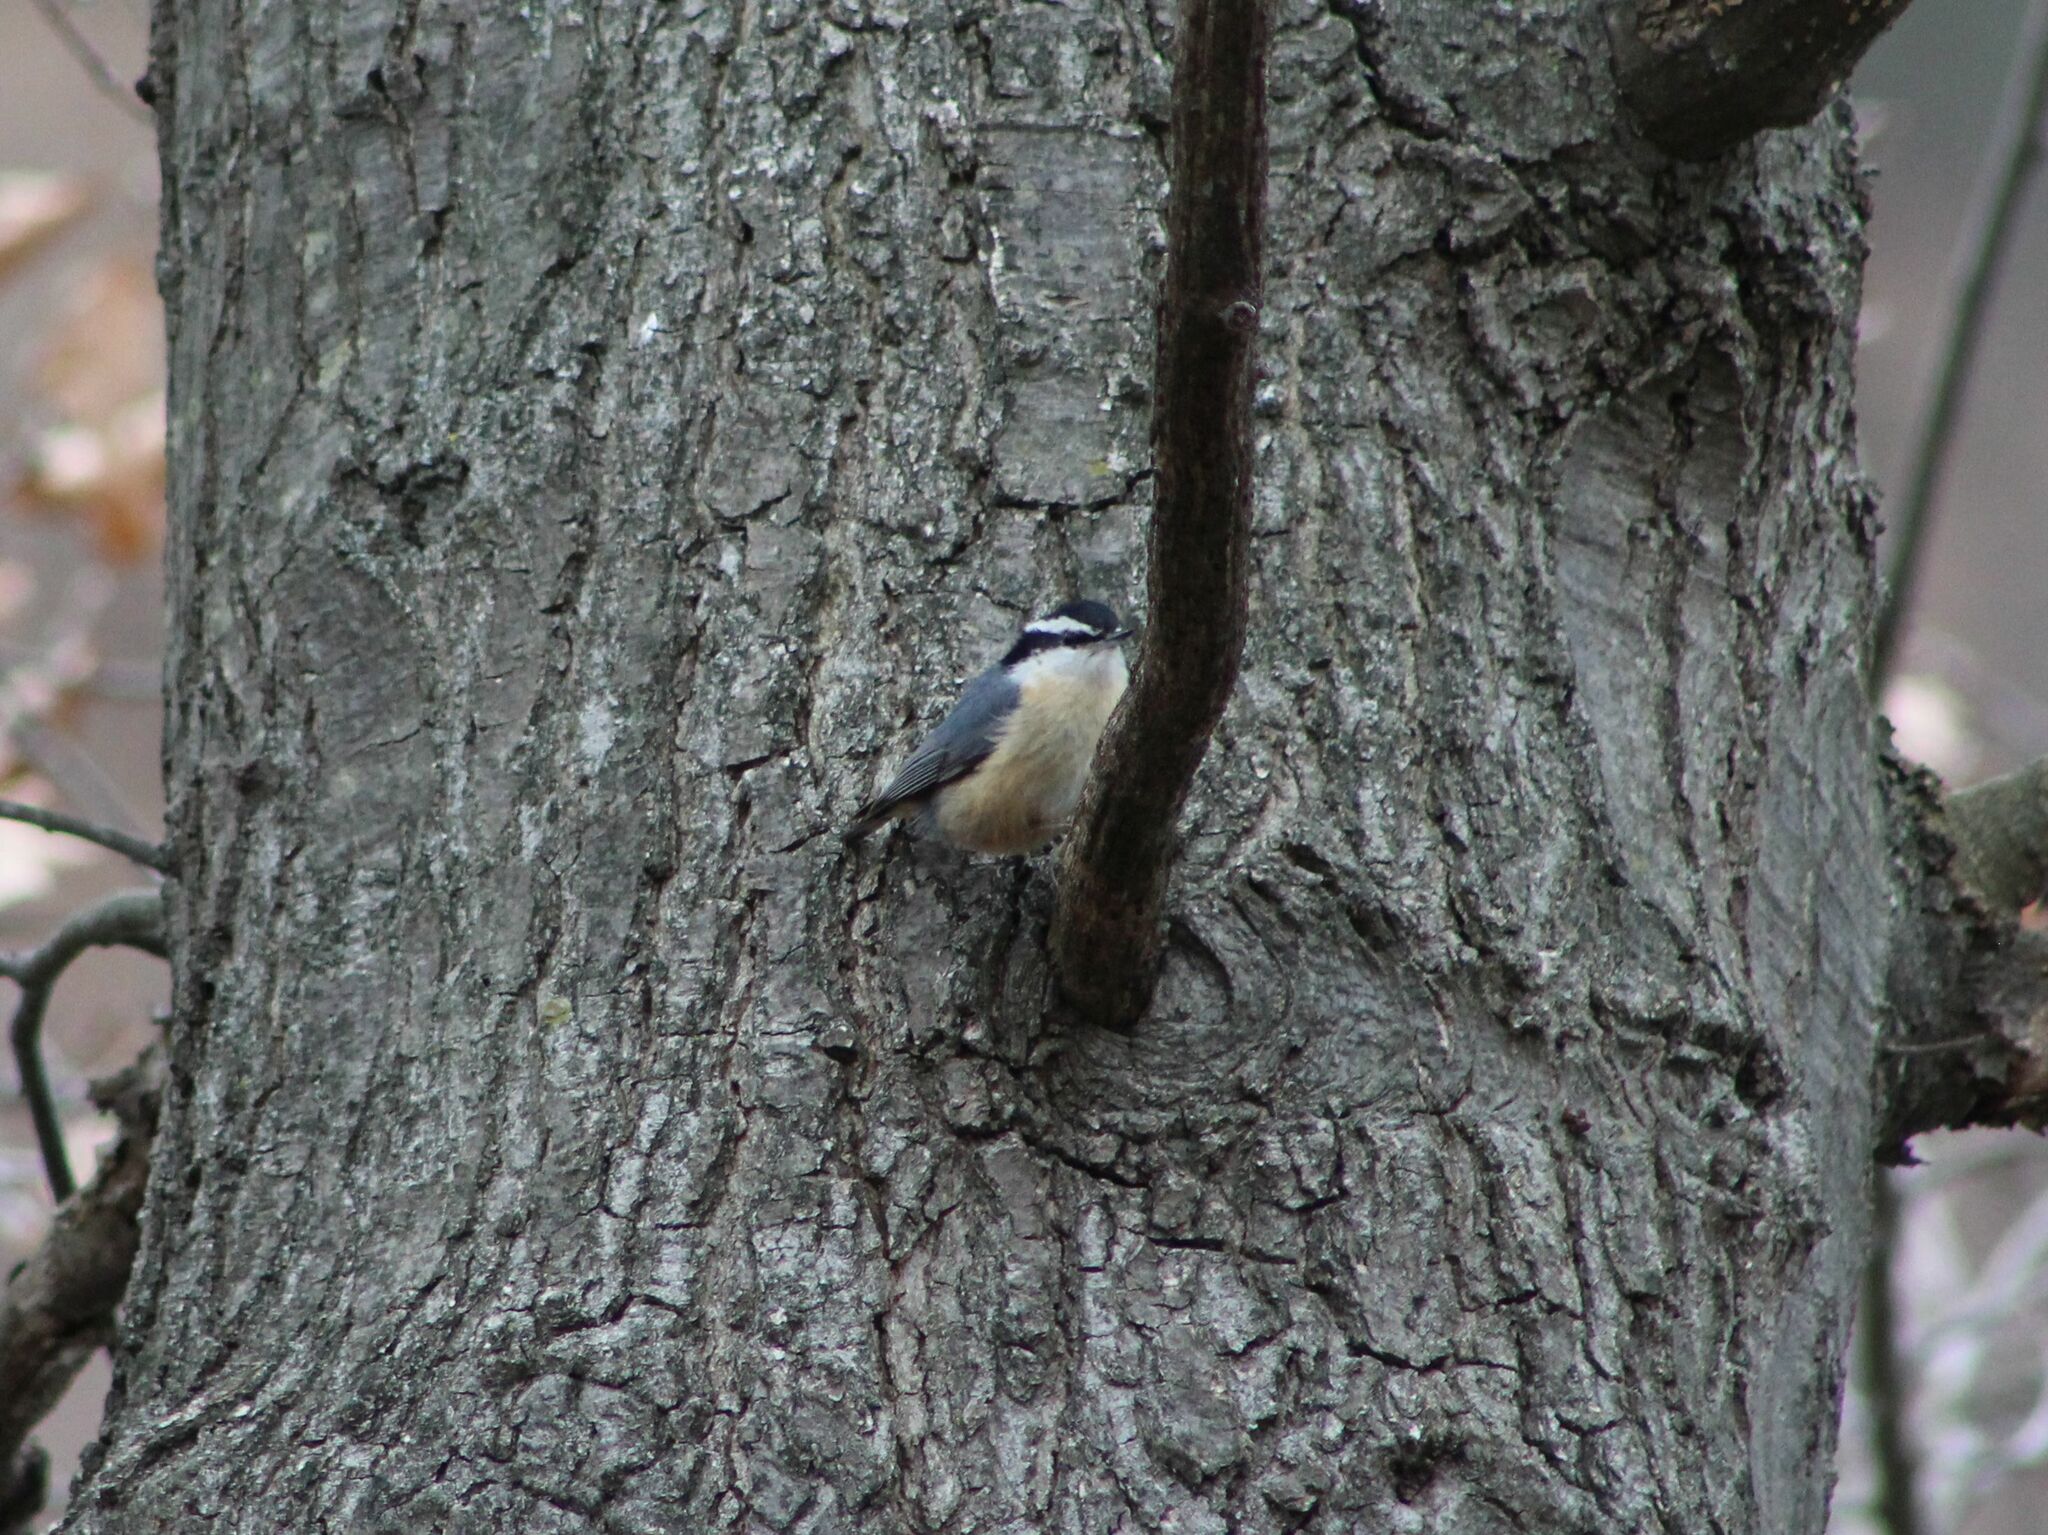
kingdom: Animalia
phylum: Chordata
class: Aves
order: Passeriformes
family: Sittidae
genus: Sitta
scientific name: Sitta canadensis
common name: Red-breasted nuthatch
